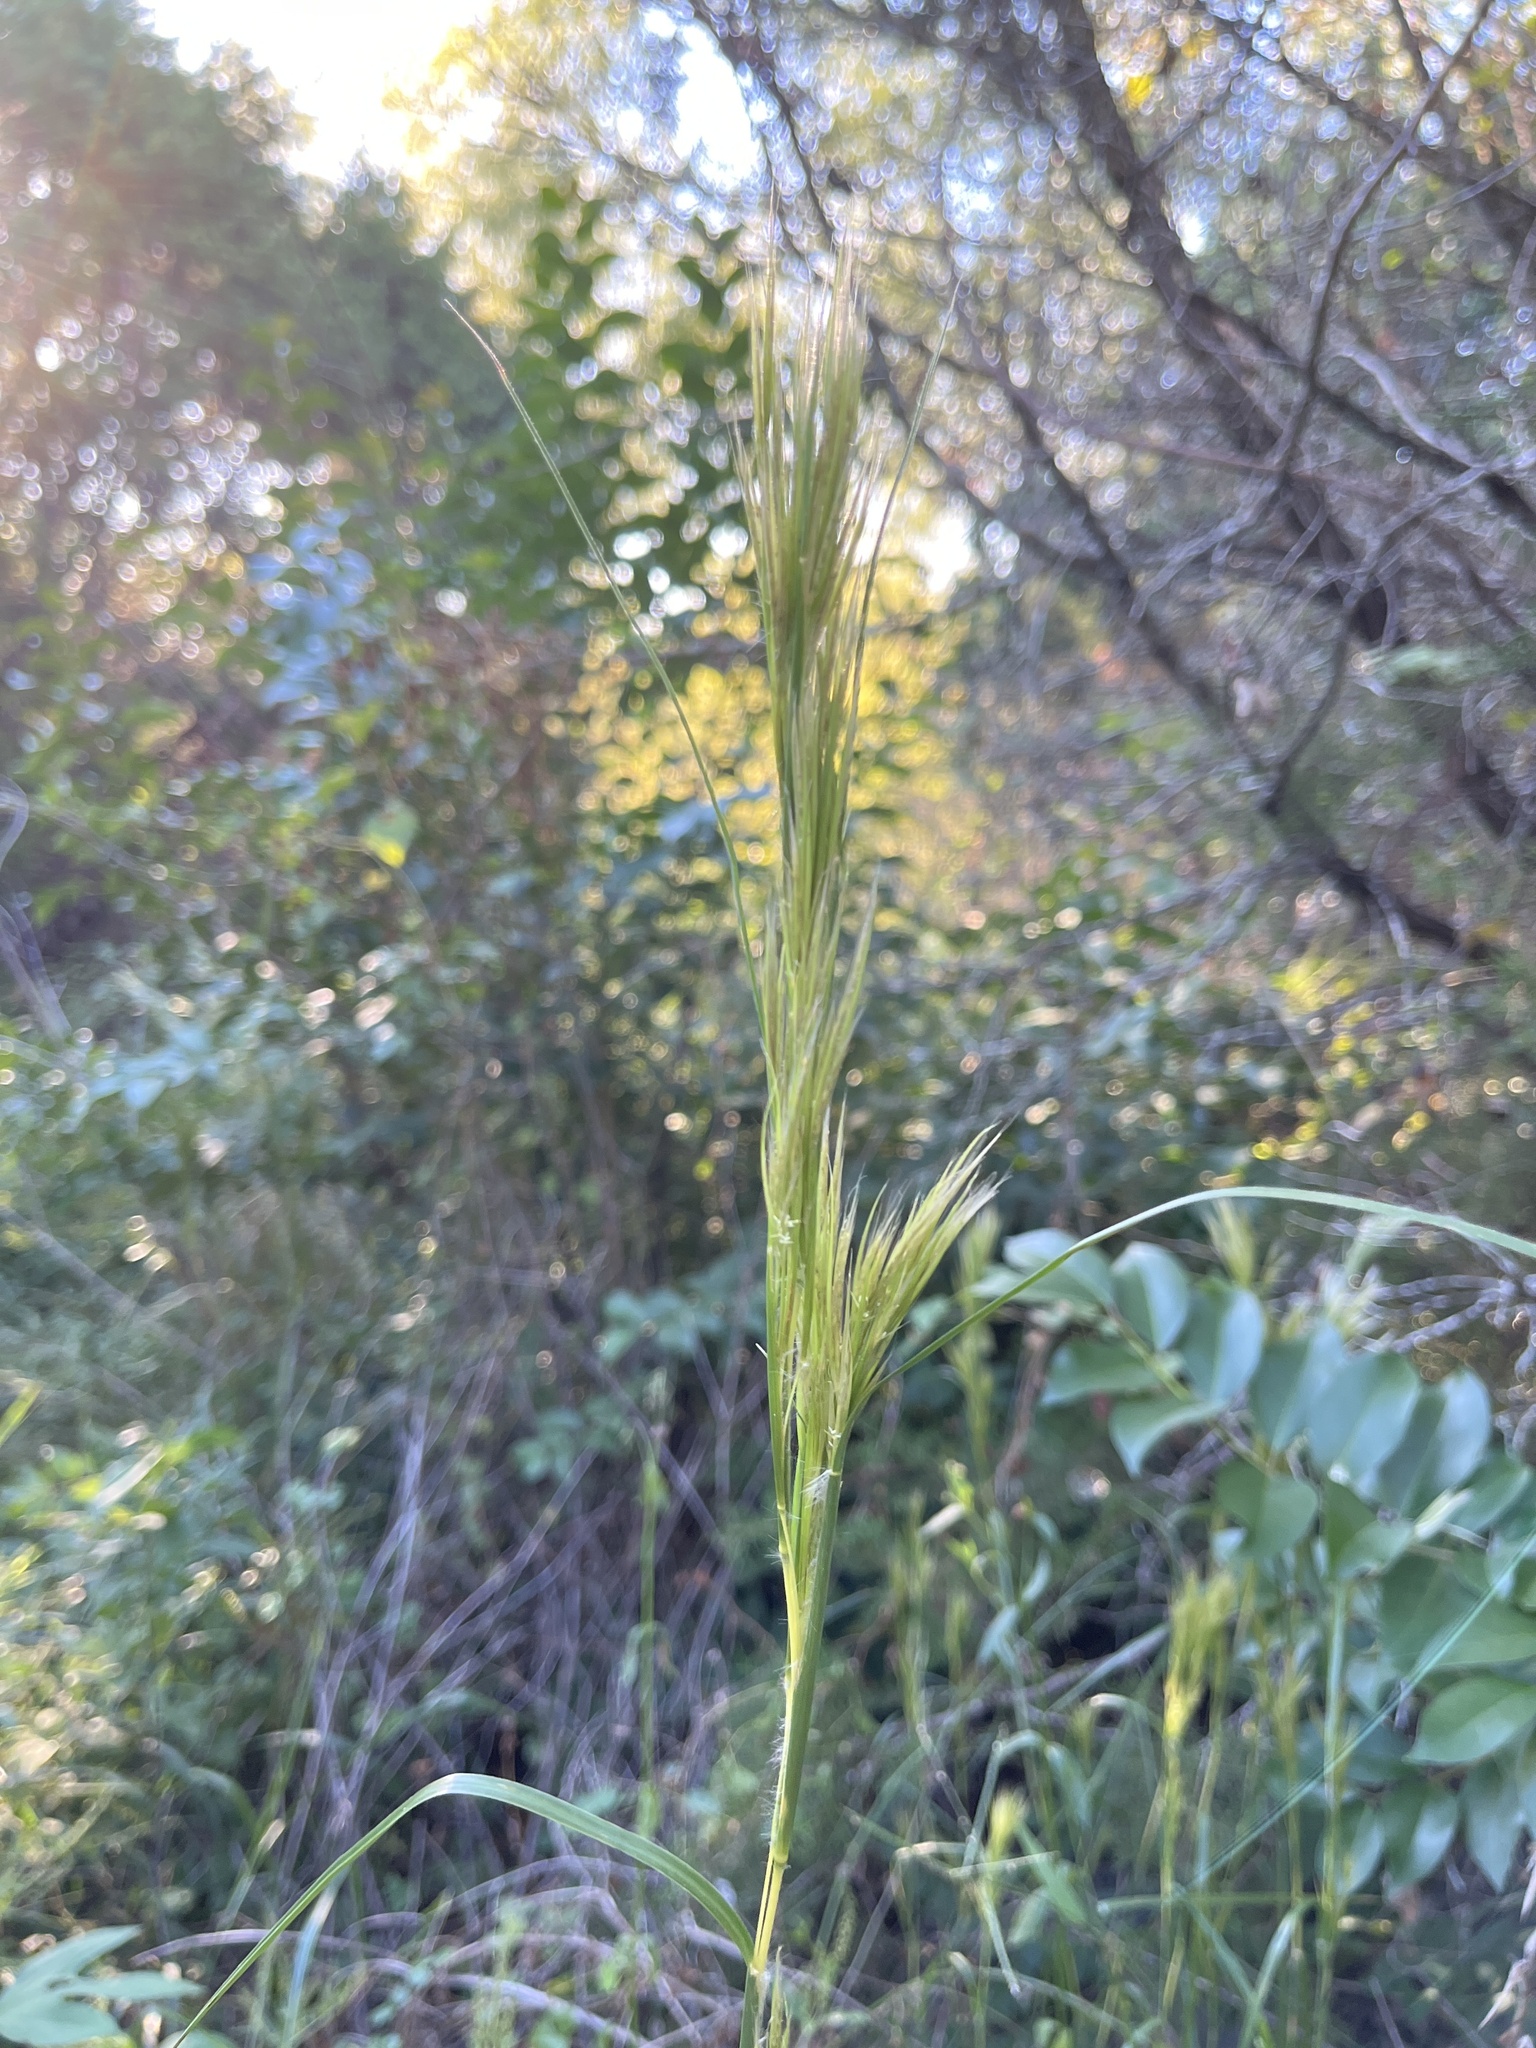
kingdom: Plantae
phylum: Tracheophyta
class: Liliopsida
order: Poales
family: Poaceae
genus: Andropogon
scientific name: Andropogon tenuispatheus
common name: Bushy bluestem
